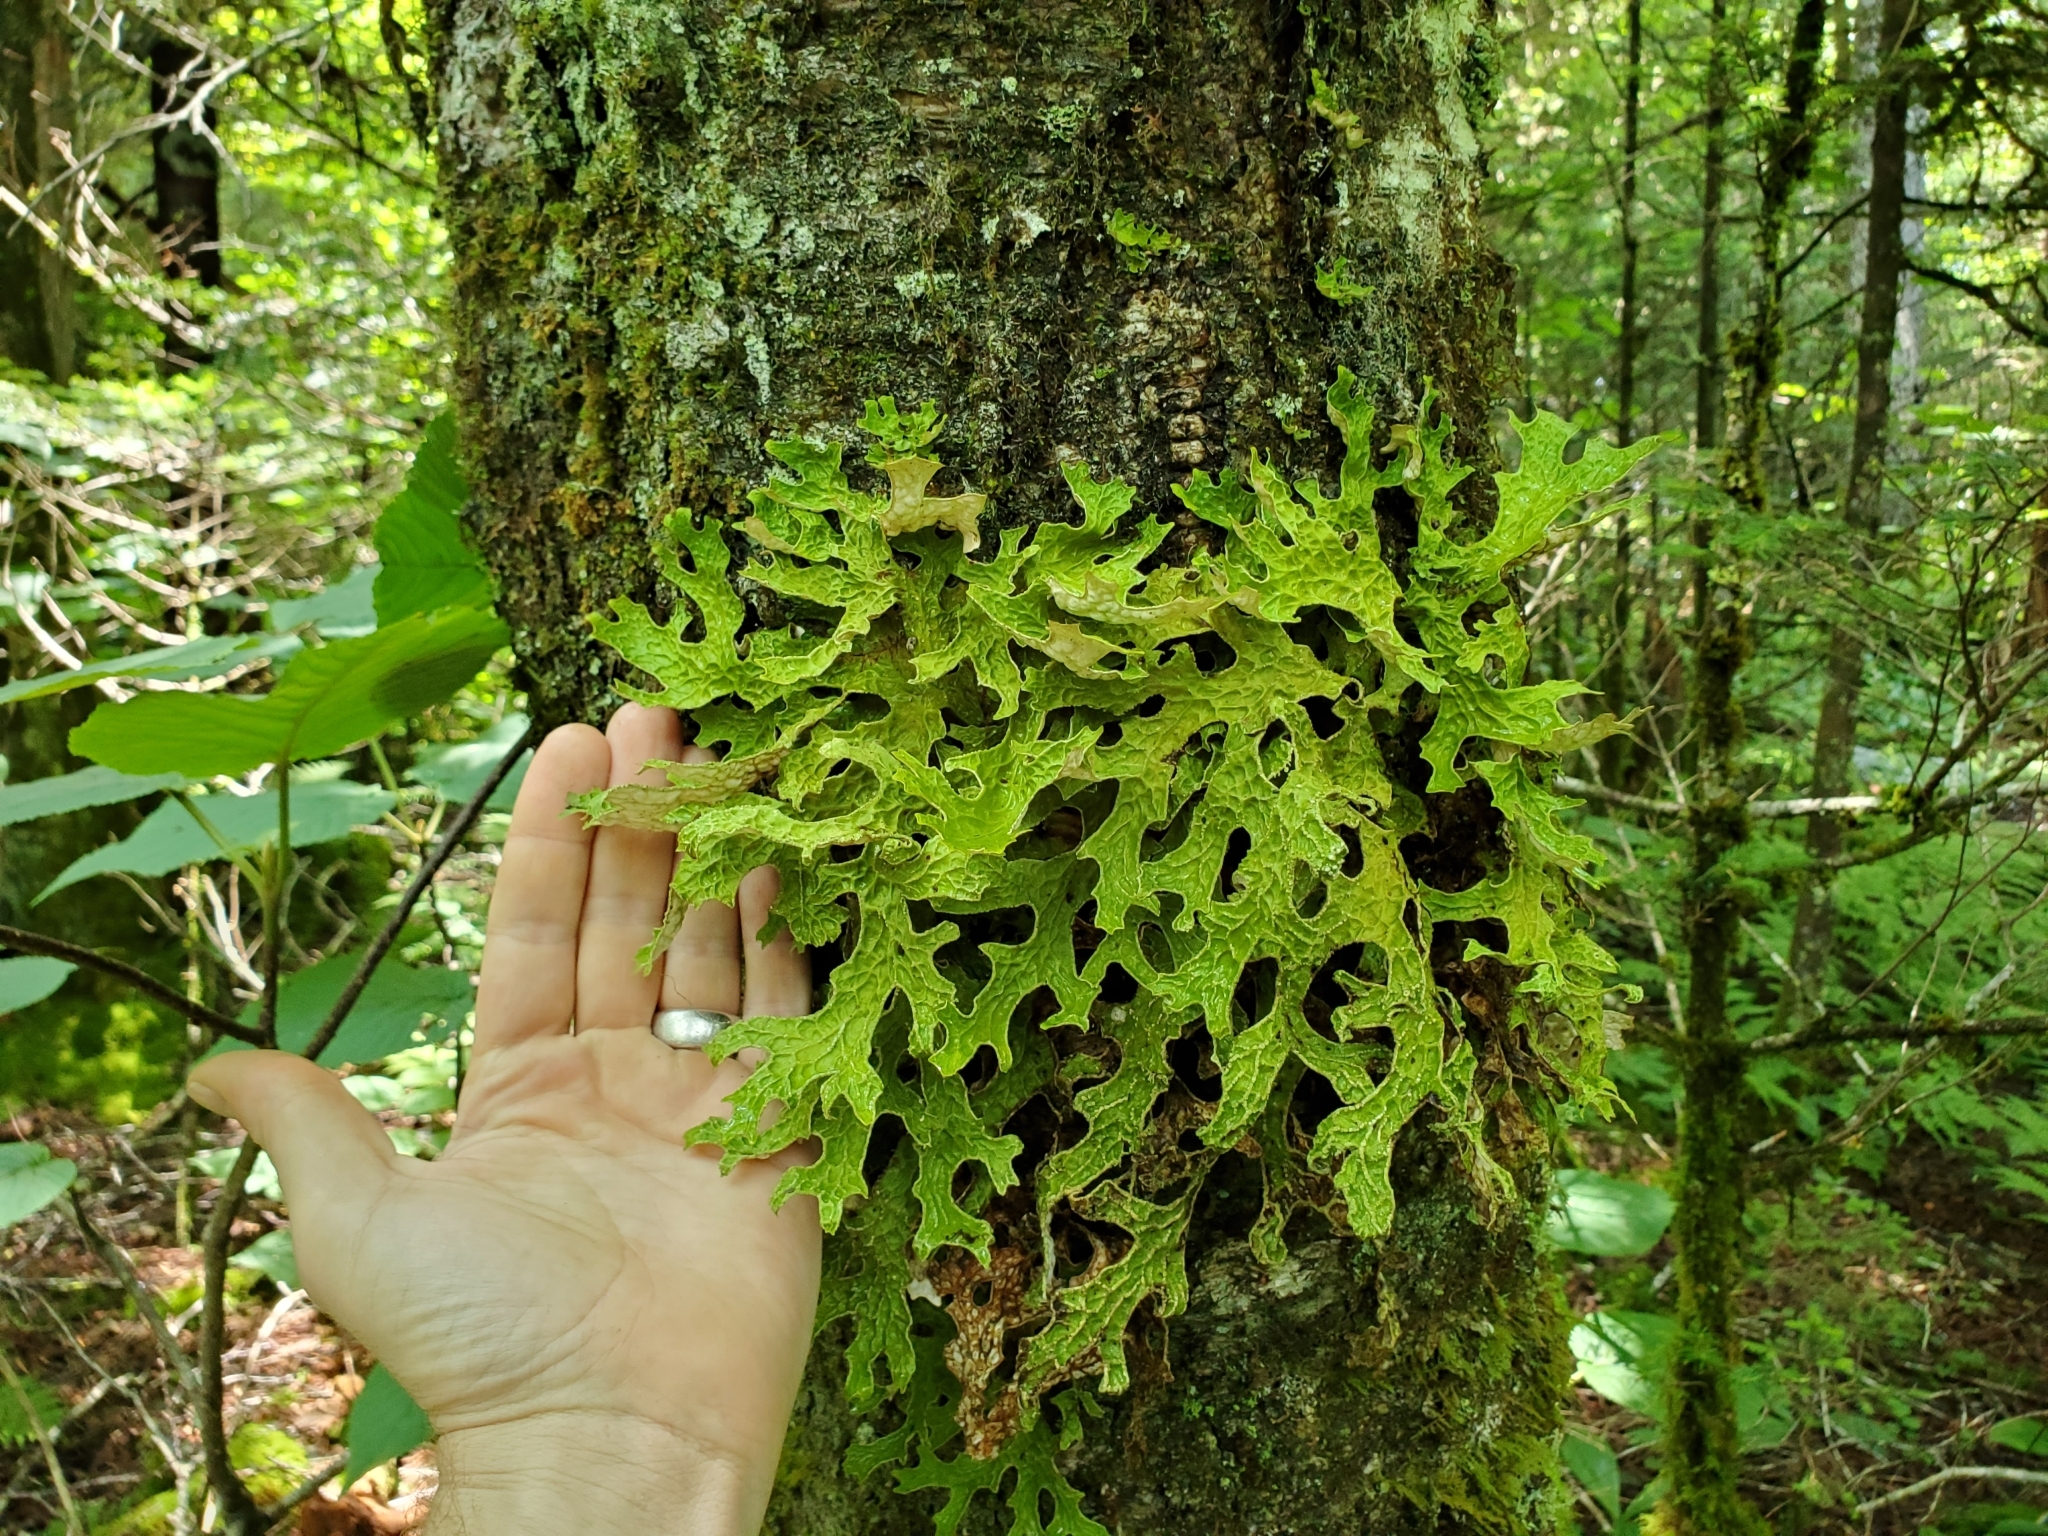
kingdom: Fungi
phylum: Ascomycota
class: Lecanoromycetes
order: Peltigerales
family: Lobariaceae
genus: Lobaria
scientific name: Lobaria pulmonaria
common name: Lungwort
